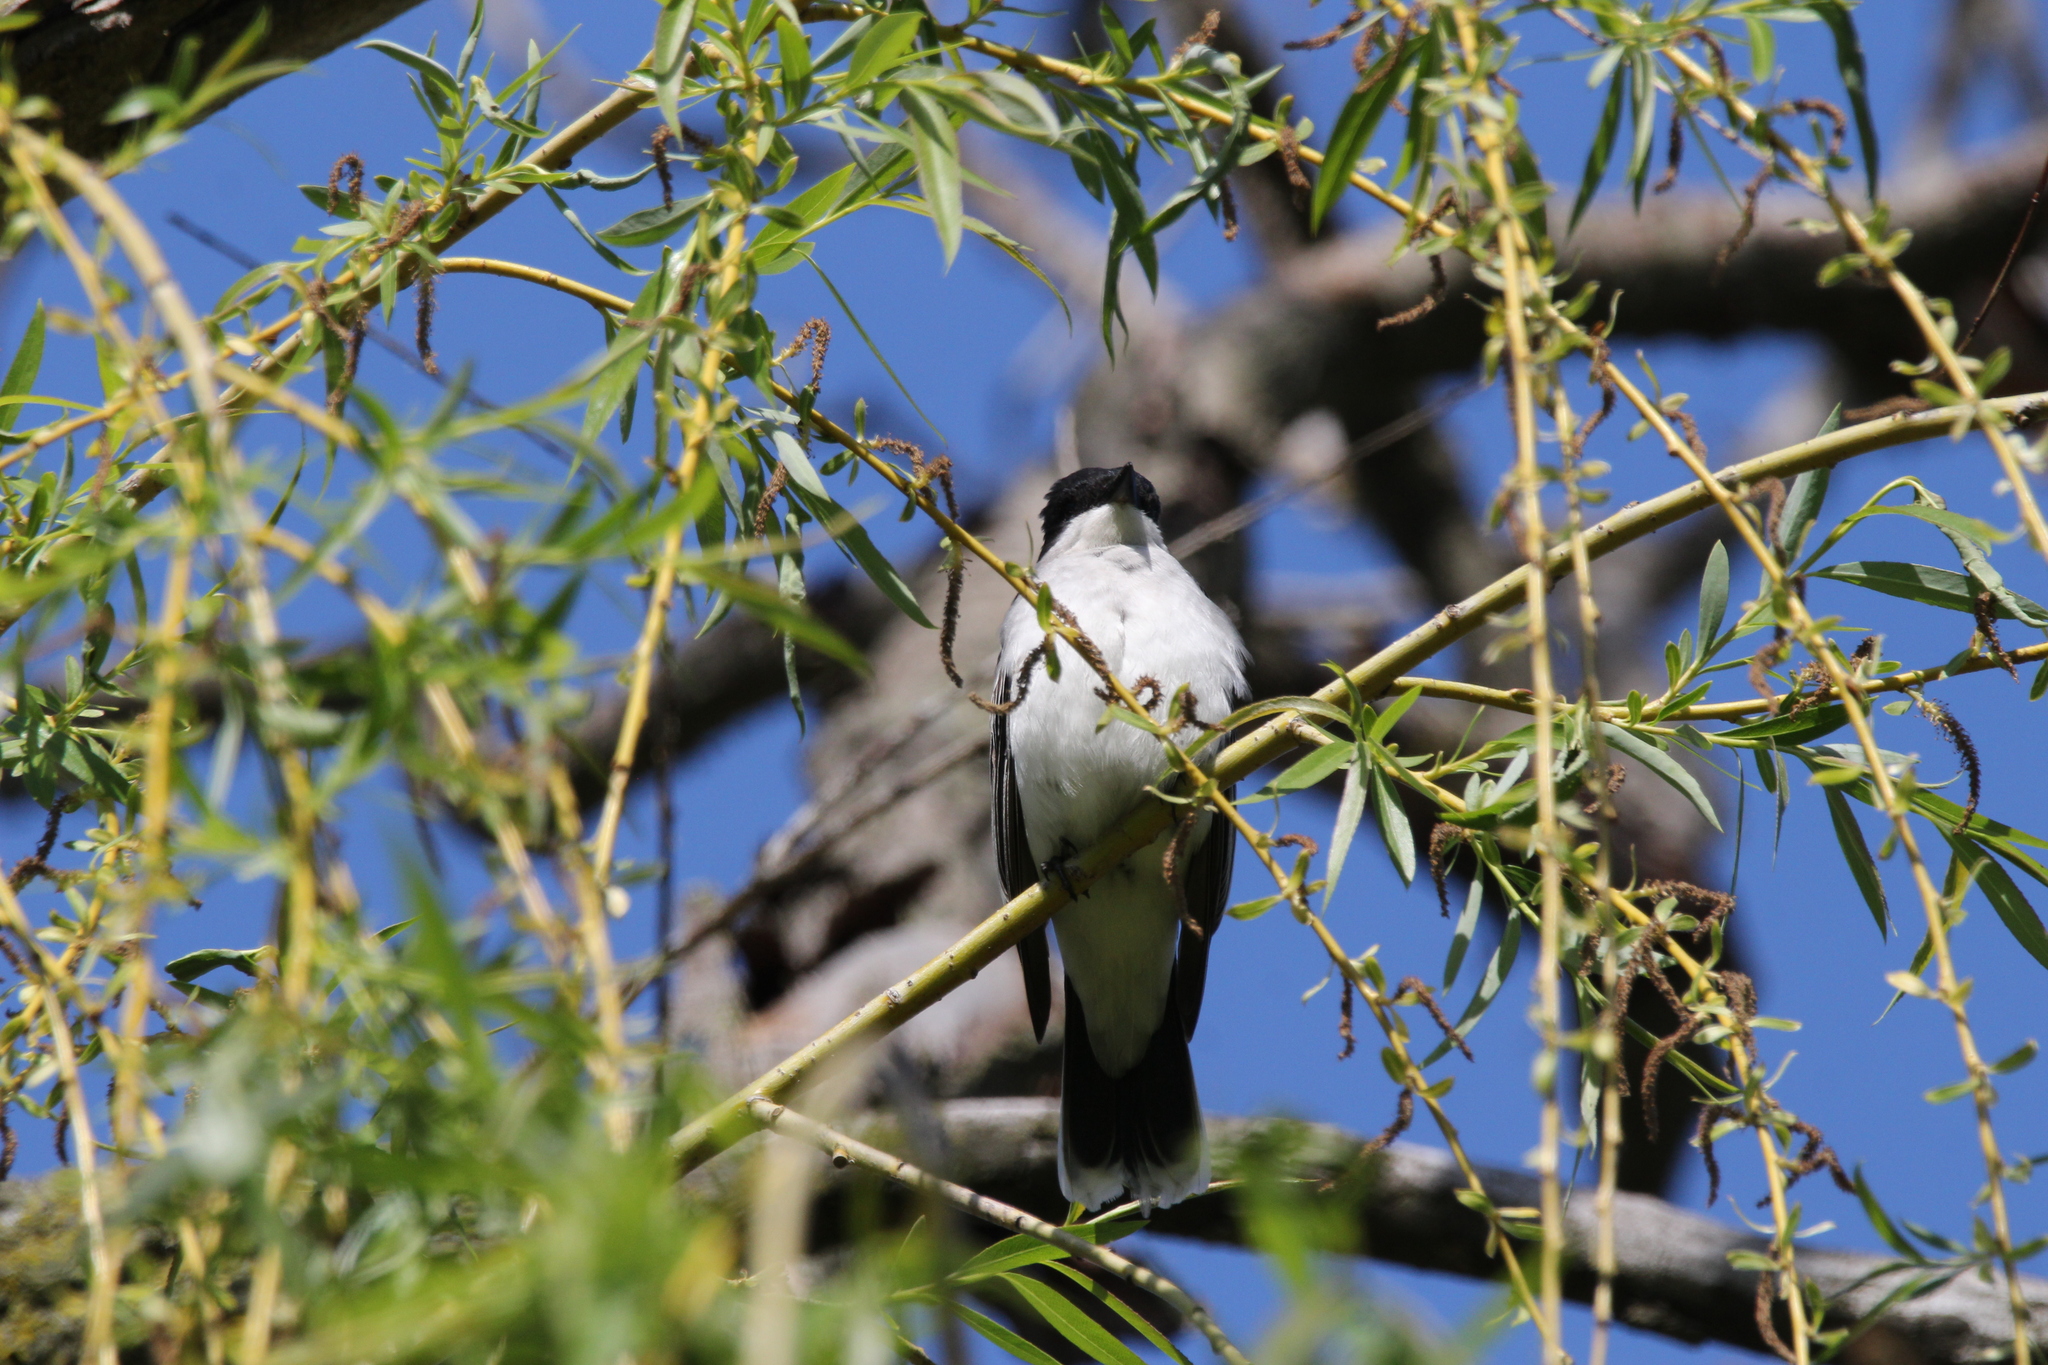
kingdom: Animalia
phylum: Chordata
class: Aves
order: Passeriformes
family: Tyrannidae
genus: Tyrannus
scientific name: Tyrannus tyrannus
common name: Eastern kingbird
